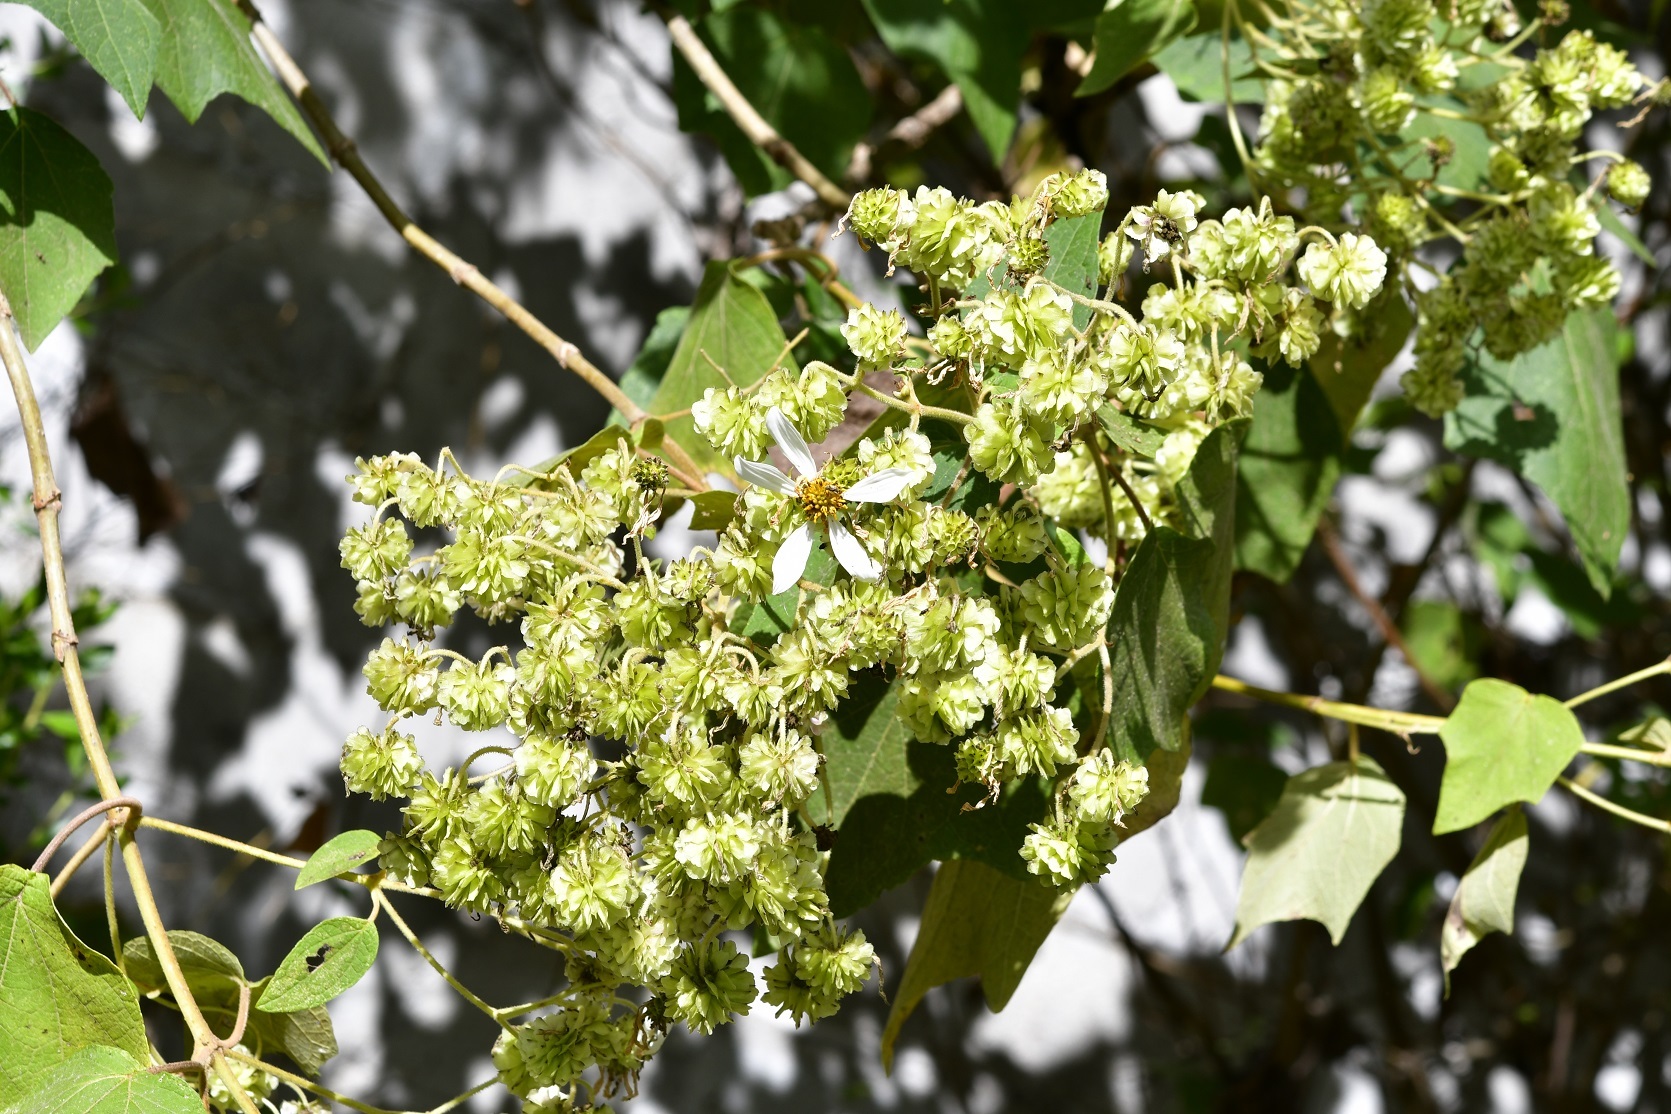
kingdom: Plantae
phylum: Tracheophyta
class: Magnoliopsida
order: Asterales
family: Asteraceae
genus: Montanoa
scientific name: Montanoa leucantha
